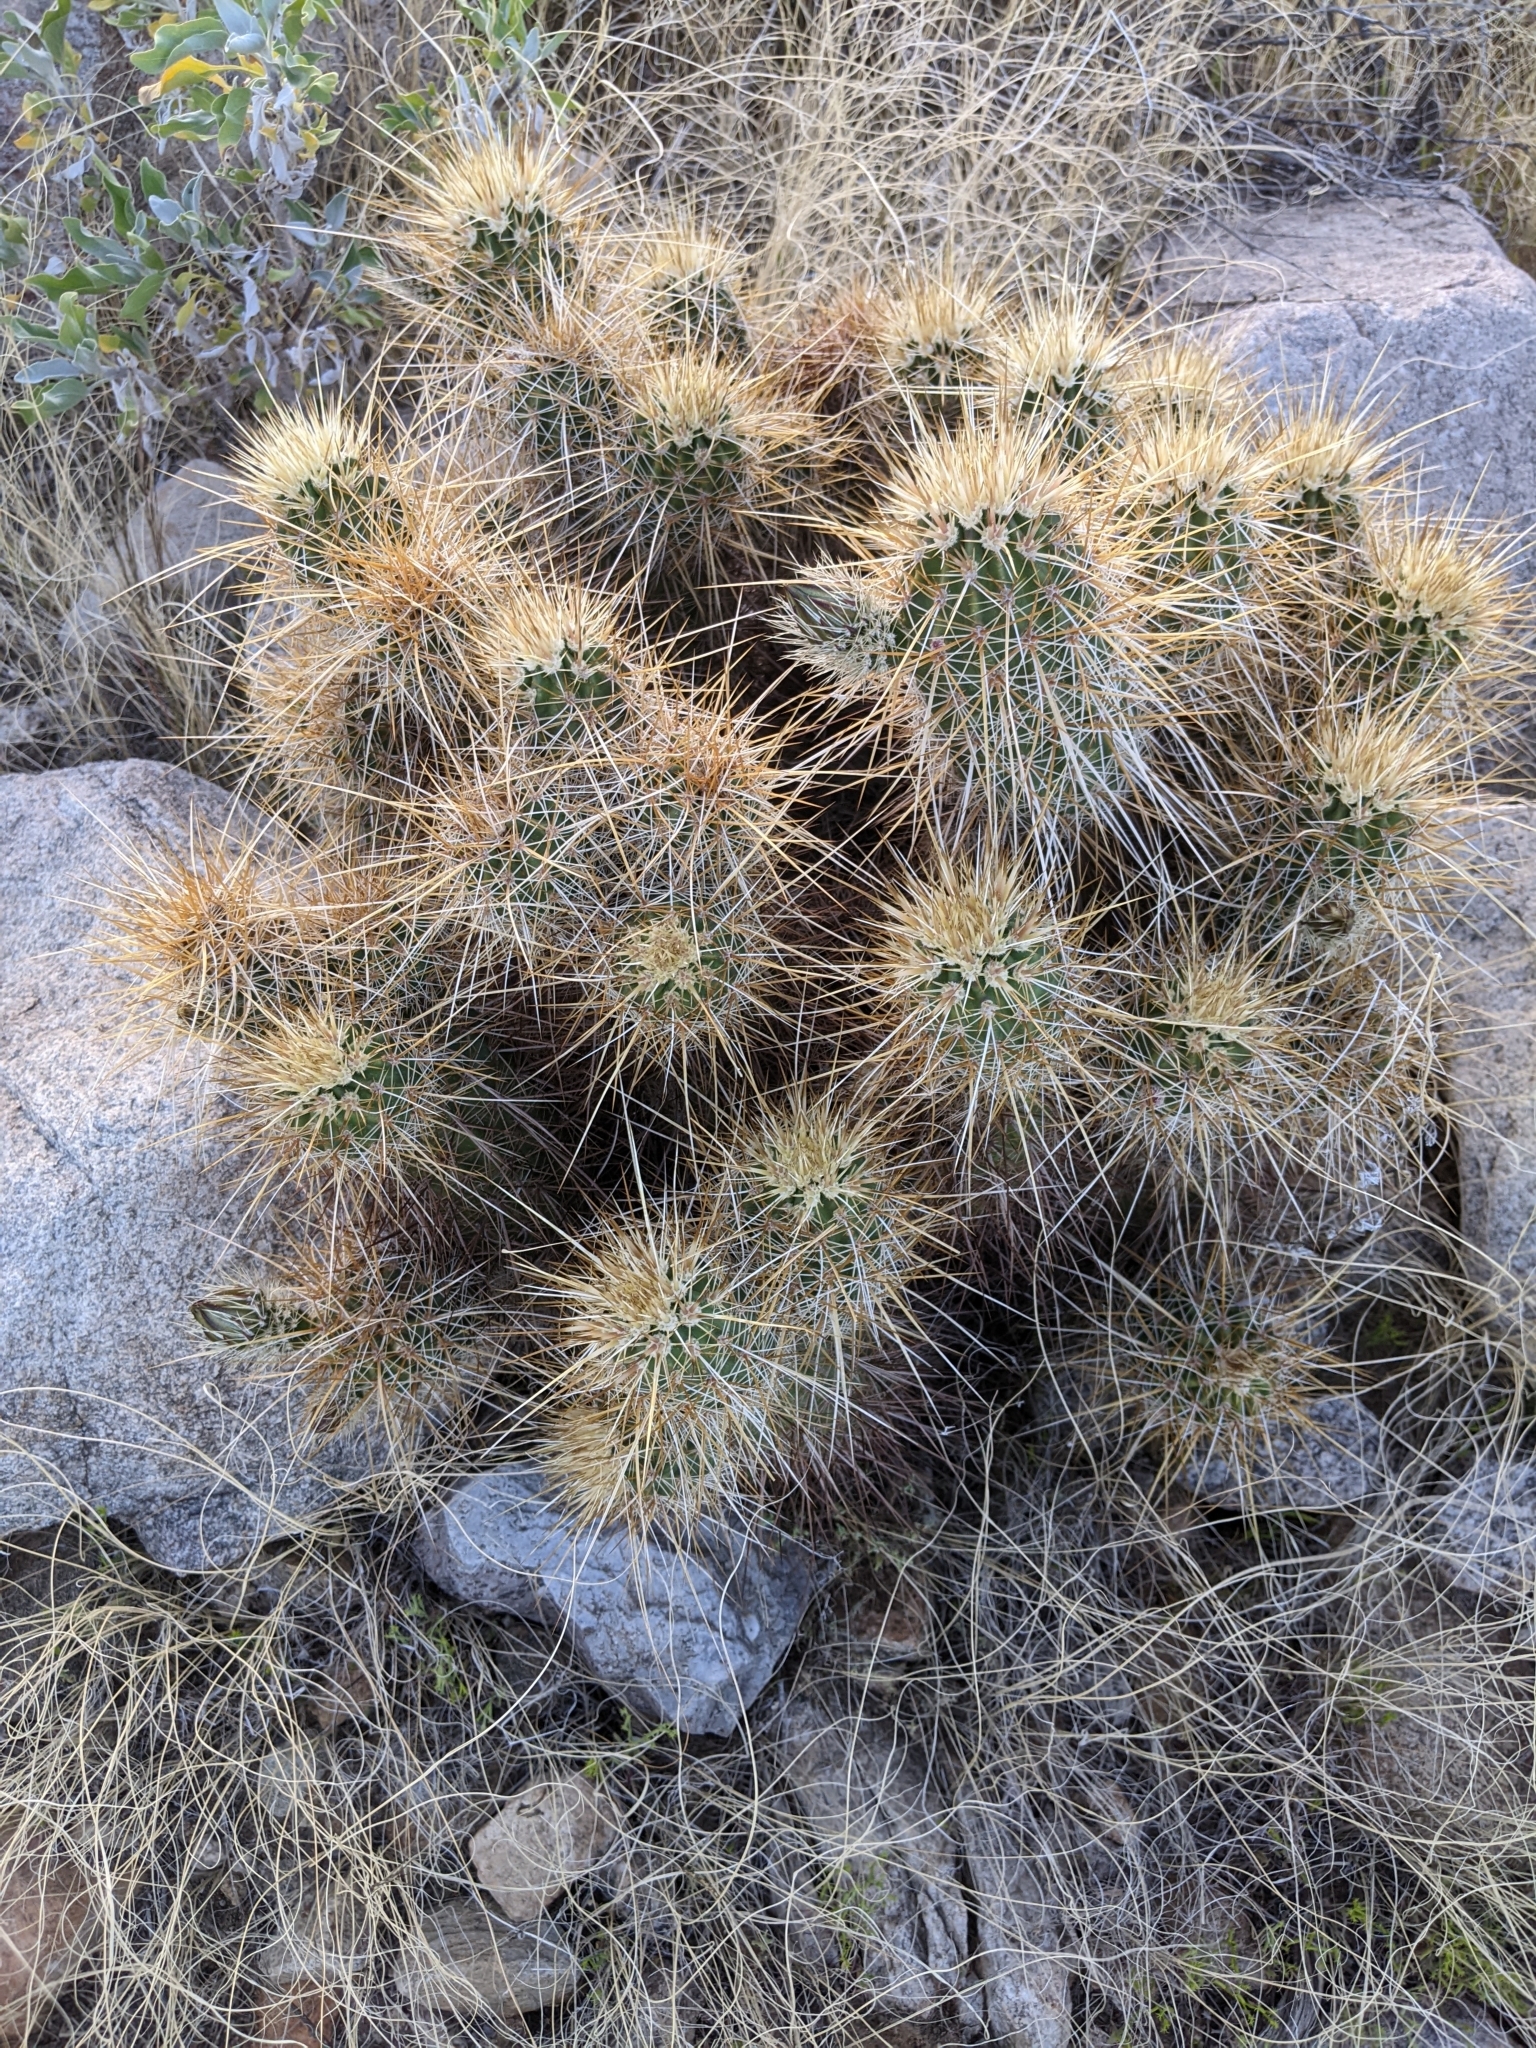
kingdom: Plantae
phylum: Tracheophyta
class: Magnoliopsida
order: Caryophyllales
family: Cactaceae
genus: Echinocereus
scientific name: Echinocereus engelmannii
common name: Engelmann's hedgehog cactus
